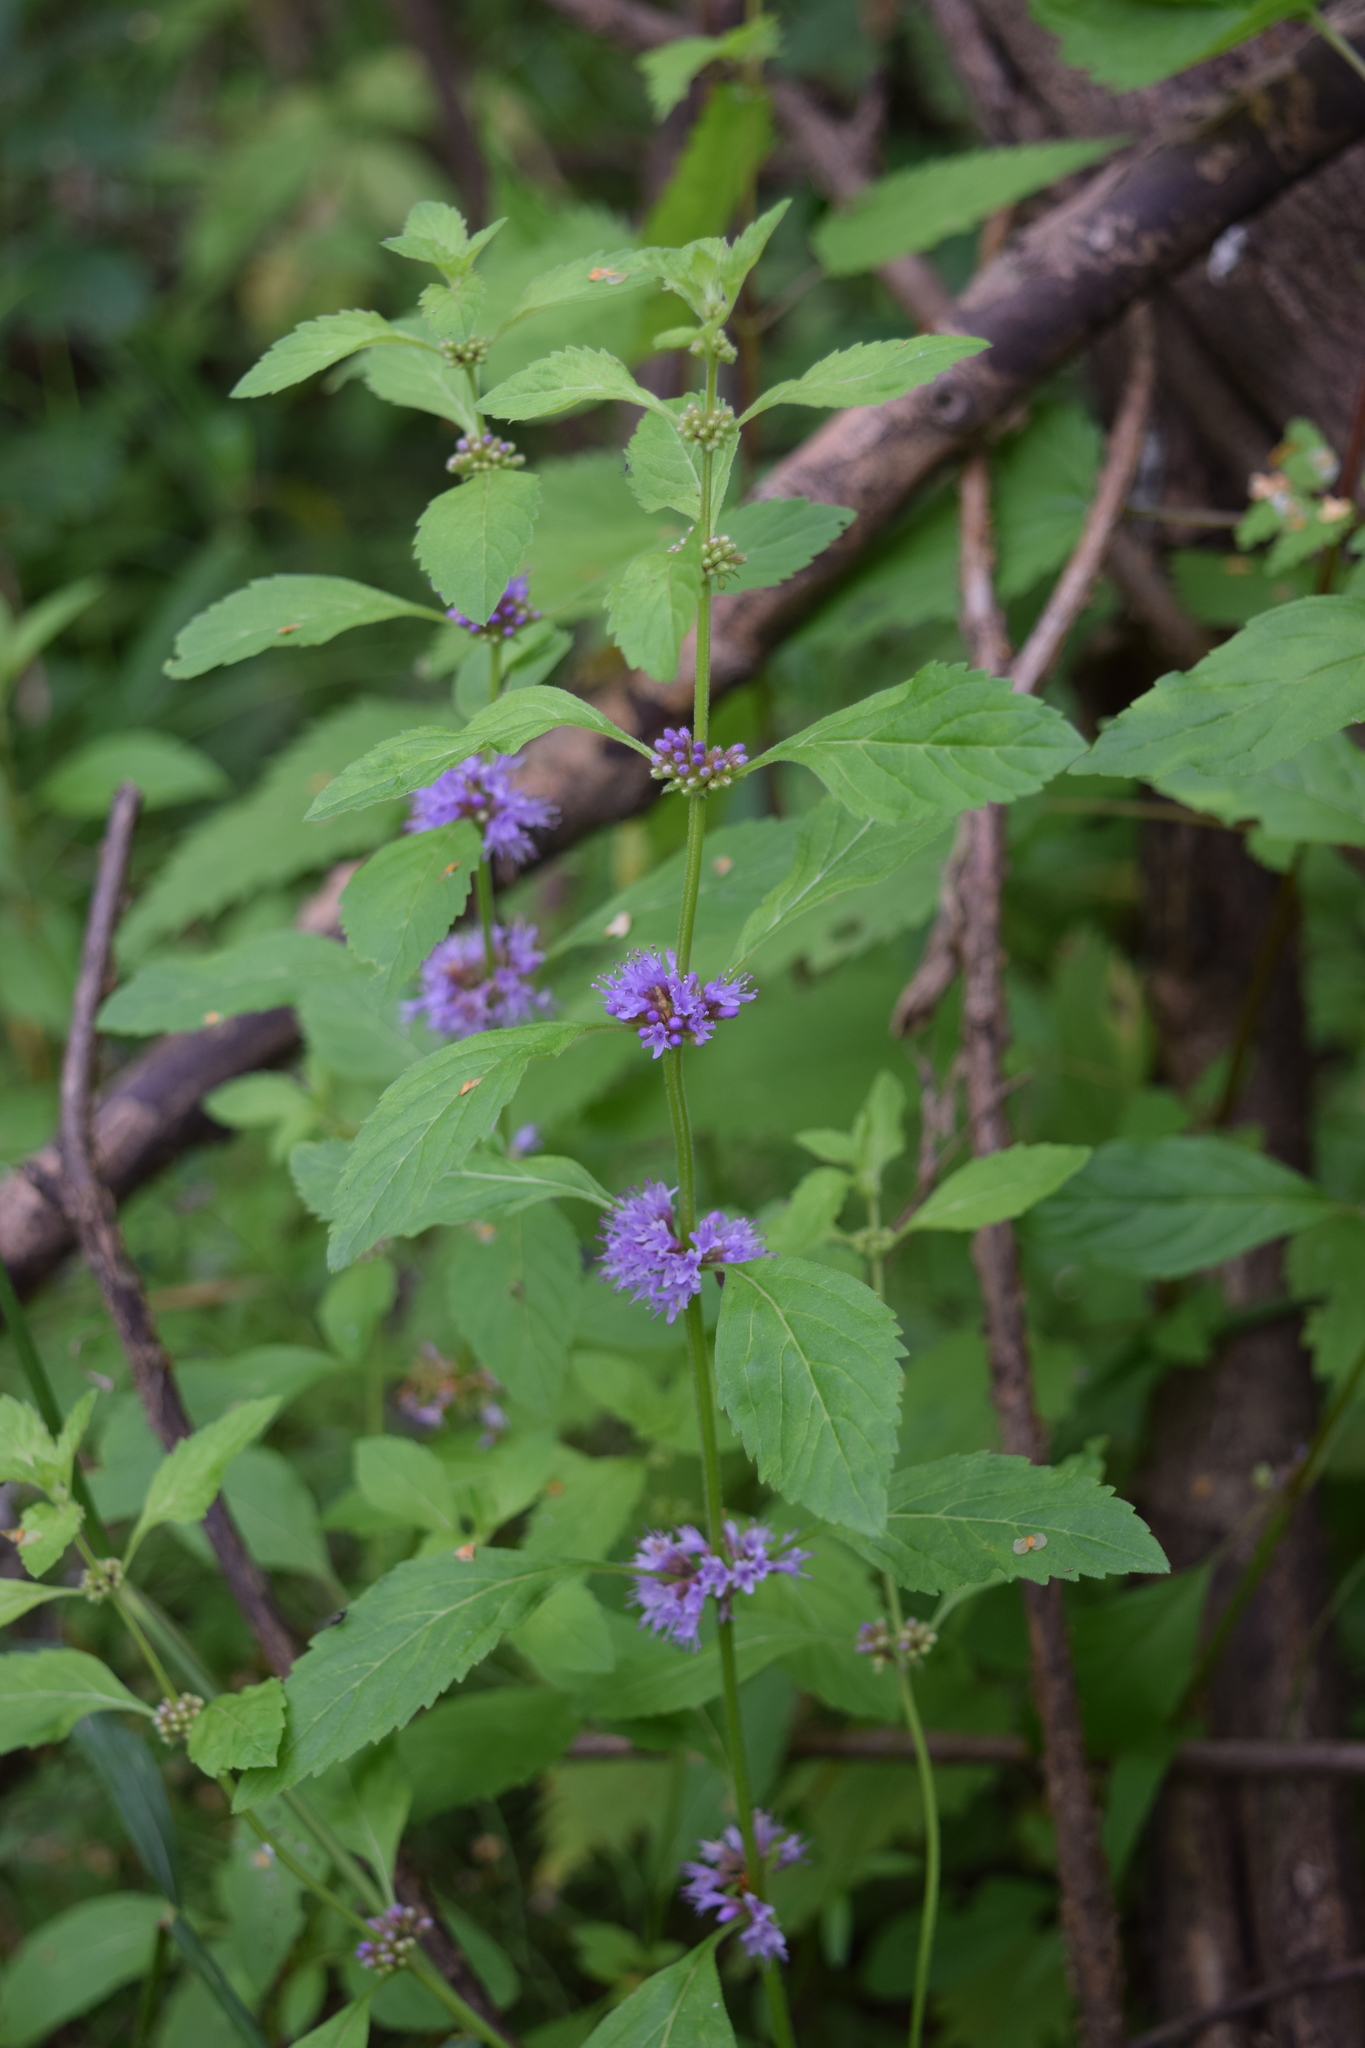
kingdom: Plantae
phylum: Tracheophyta
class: Magnoliopsida
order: Lamiales
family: Lamiaceae
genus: Mentha
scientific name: Mentha arvensis
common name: Corn mint
